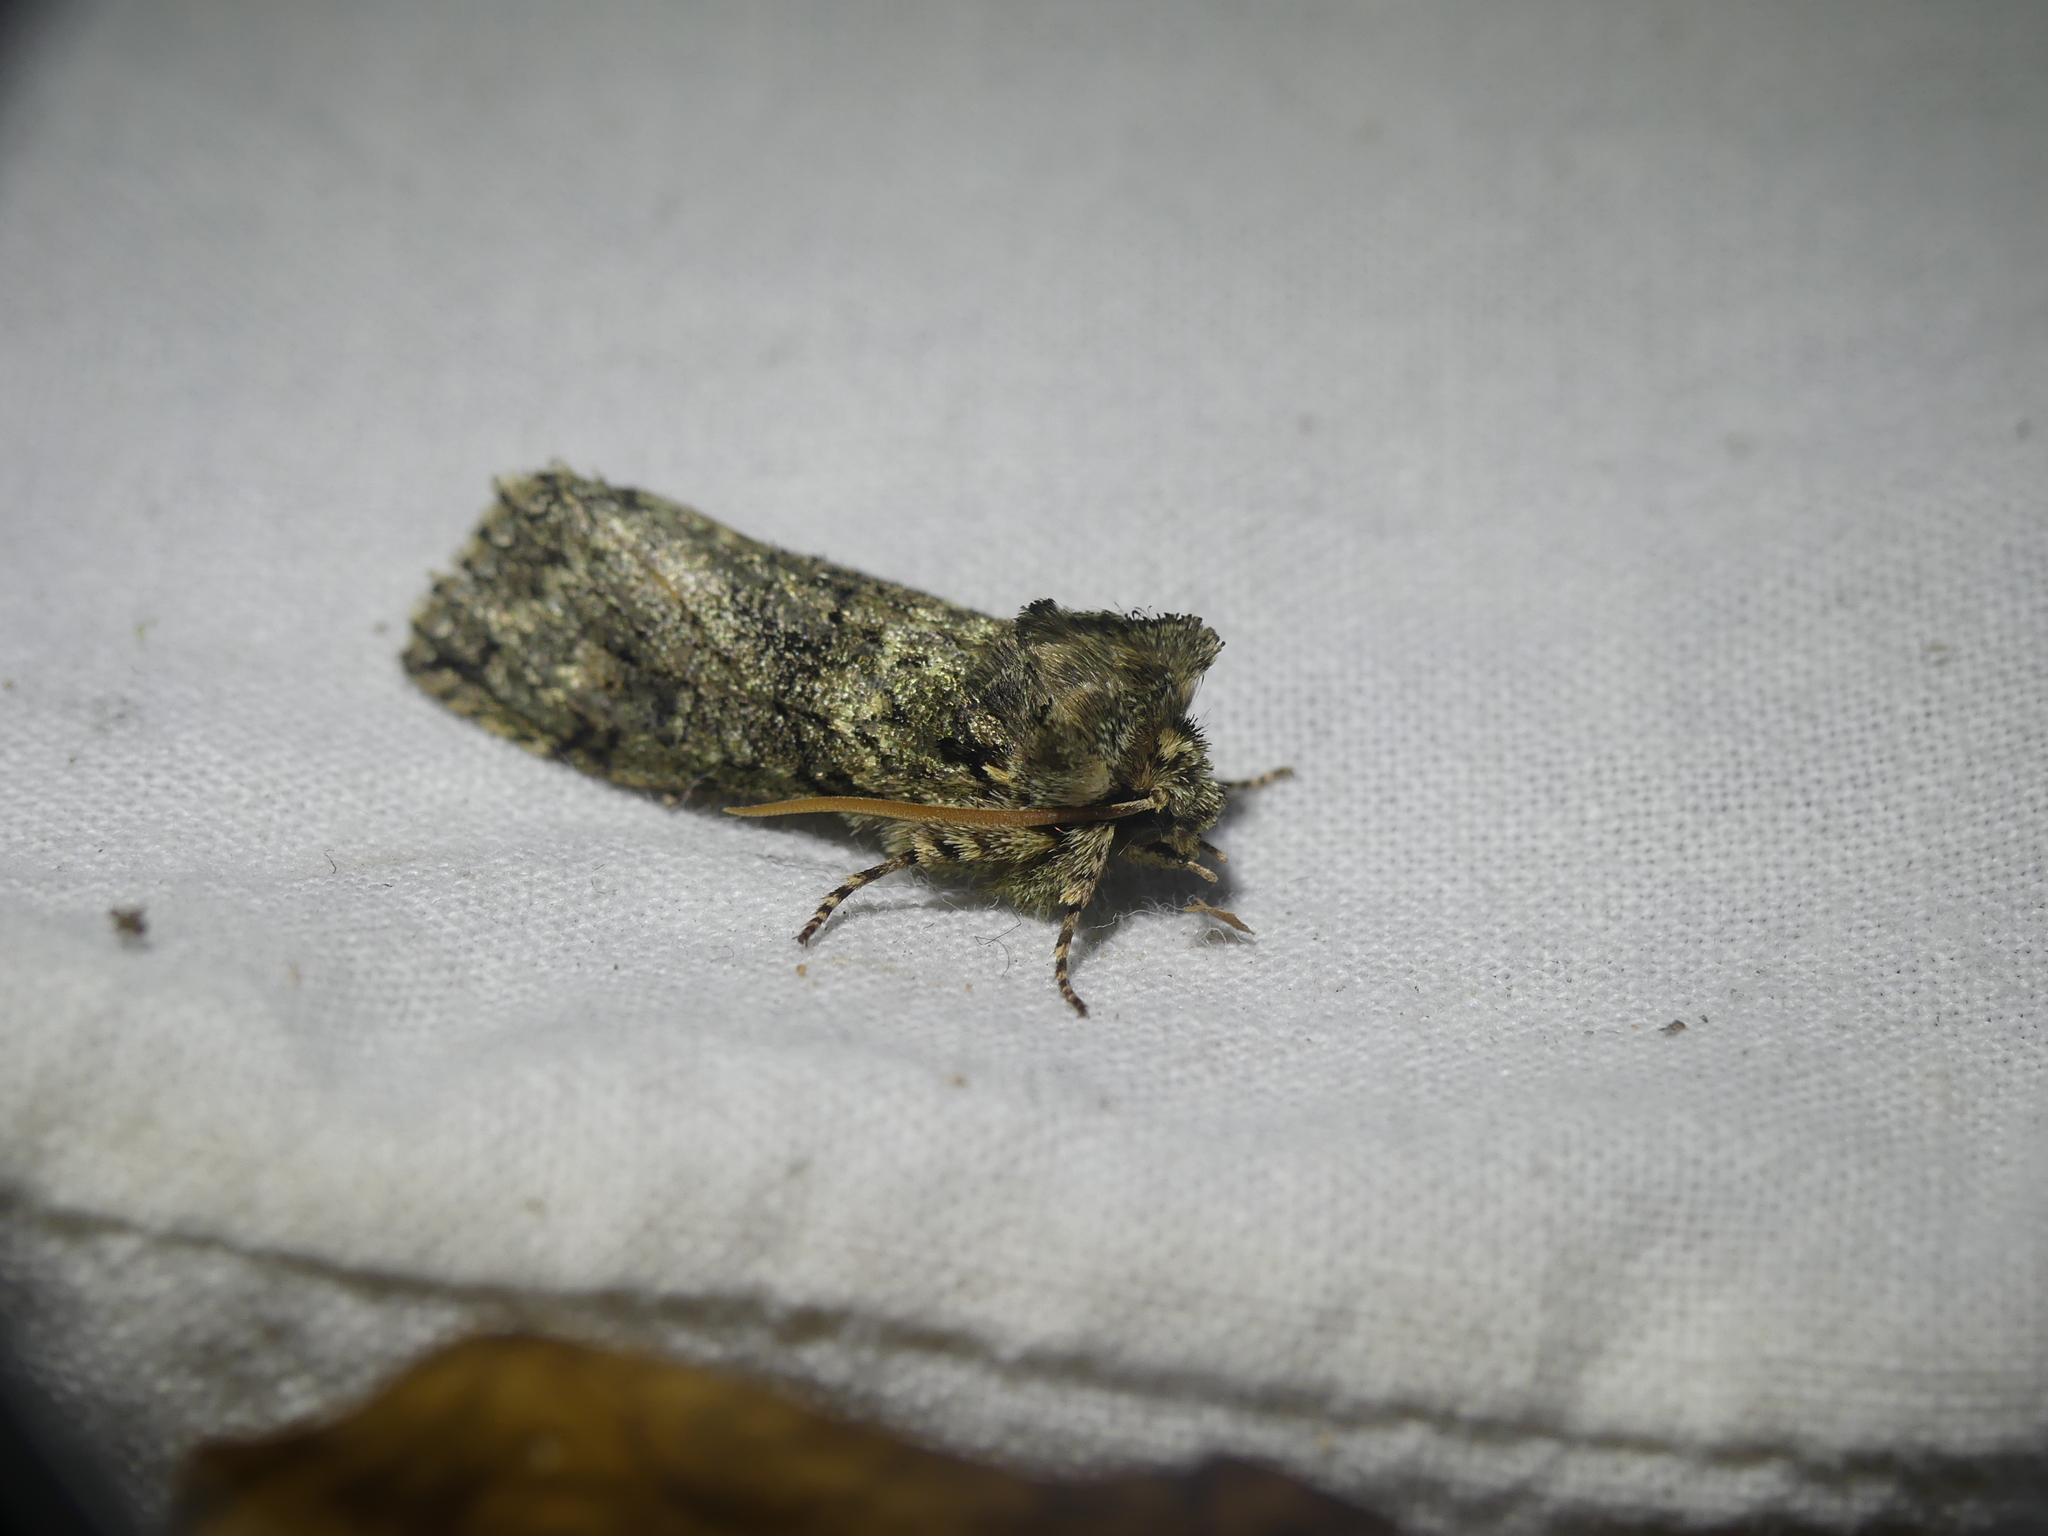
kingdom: Animalia
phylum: Arthropoda
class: Insecta
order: Lepidoptera
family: Drepanidae
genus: Polyploca
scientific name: Polyploca ridens
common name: Frosted green
